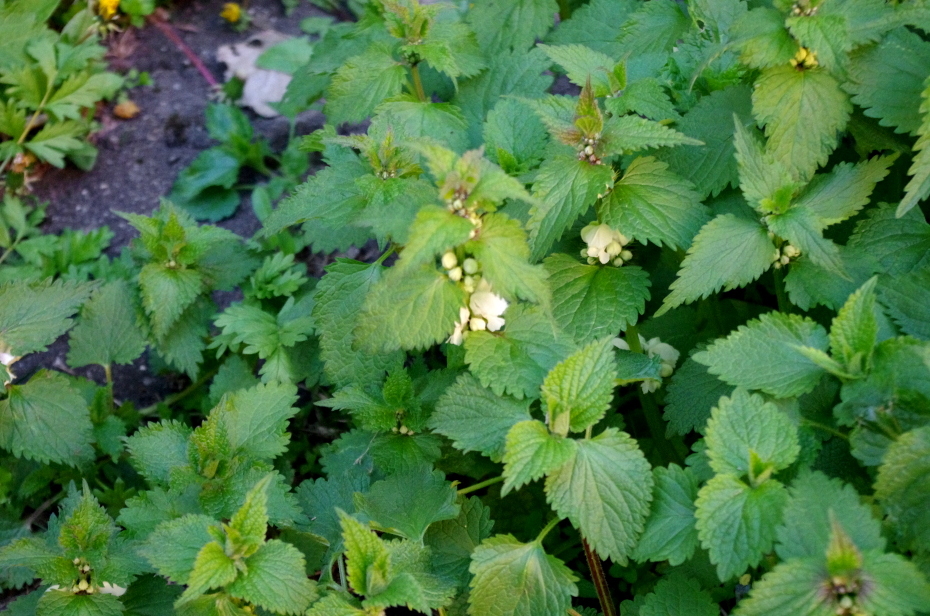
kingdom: Plantae
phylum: Tracheophyta
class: Magnoliopsida
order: Lamiales
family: Lamiaceae
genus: Lamium
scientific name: Lamium album
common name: White dead-nettle
